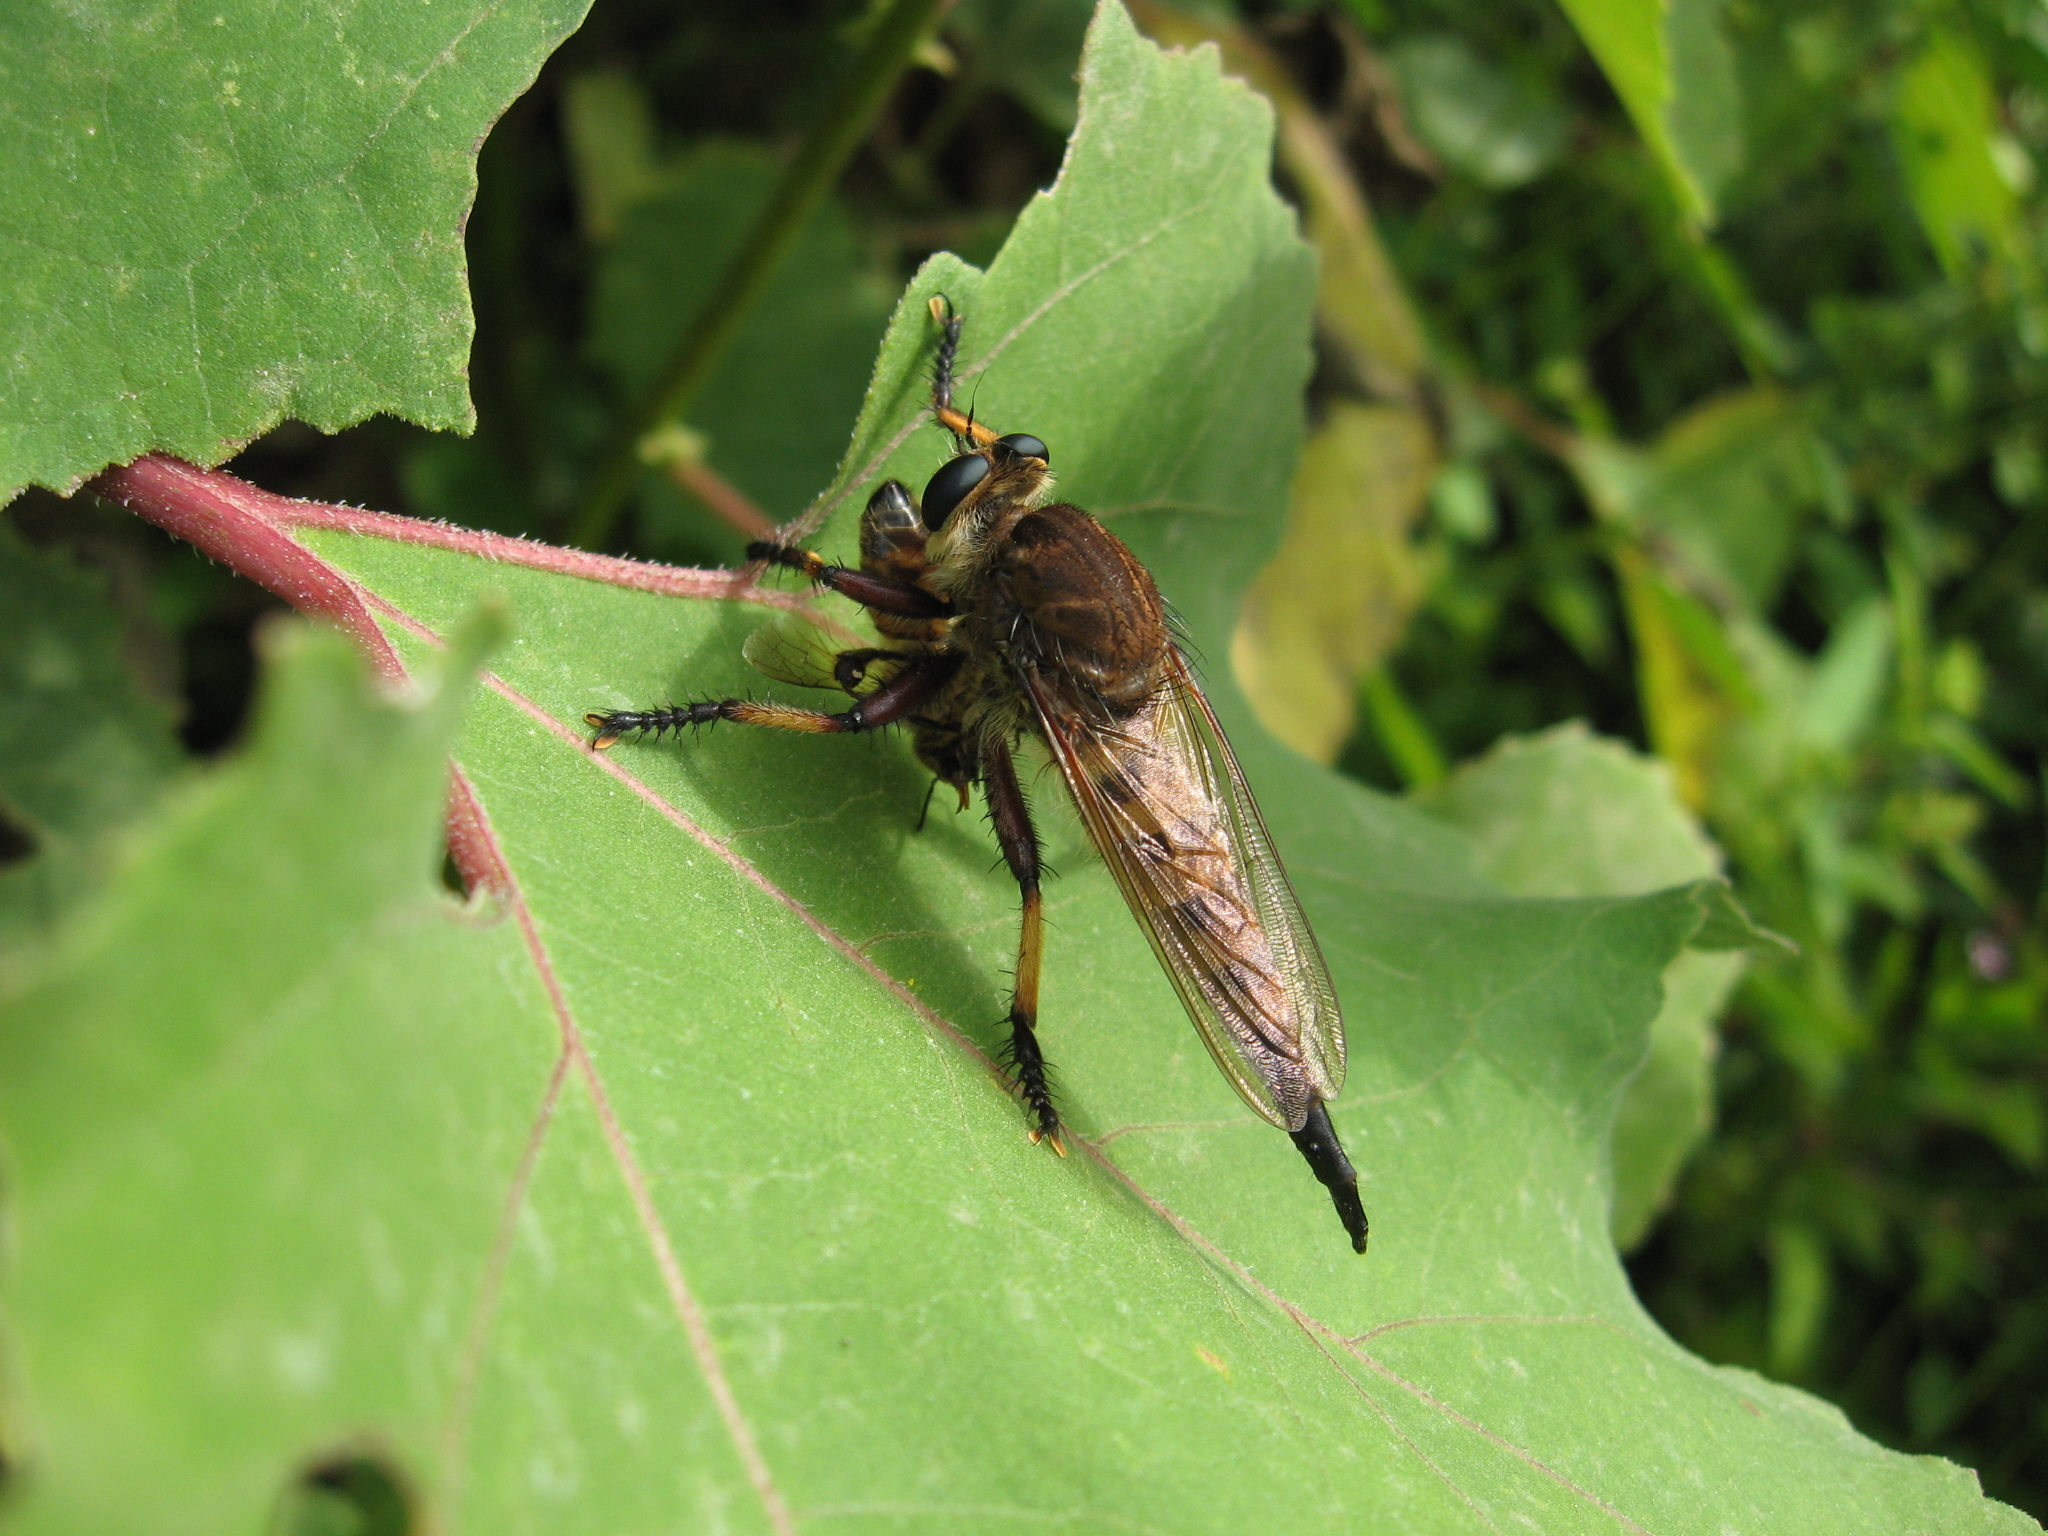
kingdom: Animalia
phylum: Arthropoda
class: Insecta
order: Diptera
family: Asilidae
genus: Promachus
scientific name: Promachus rufipes
